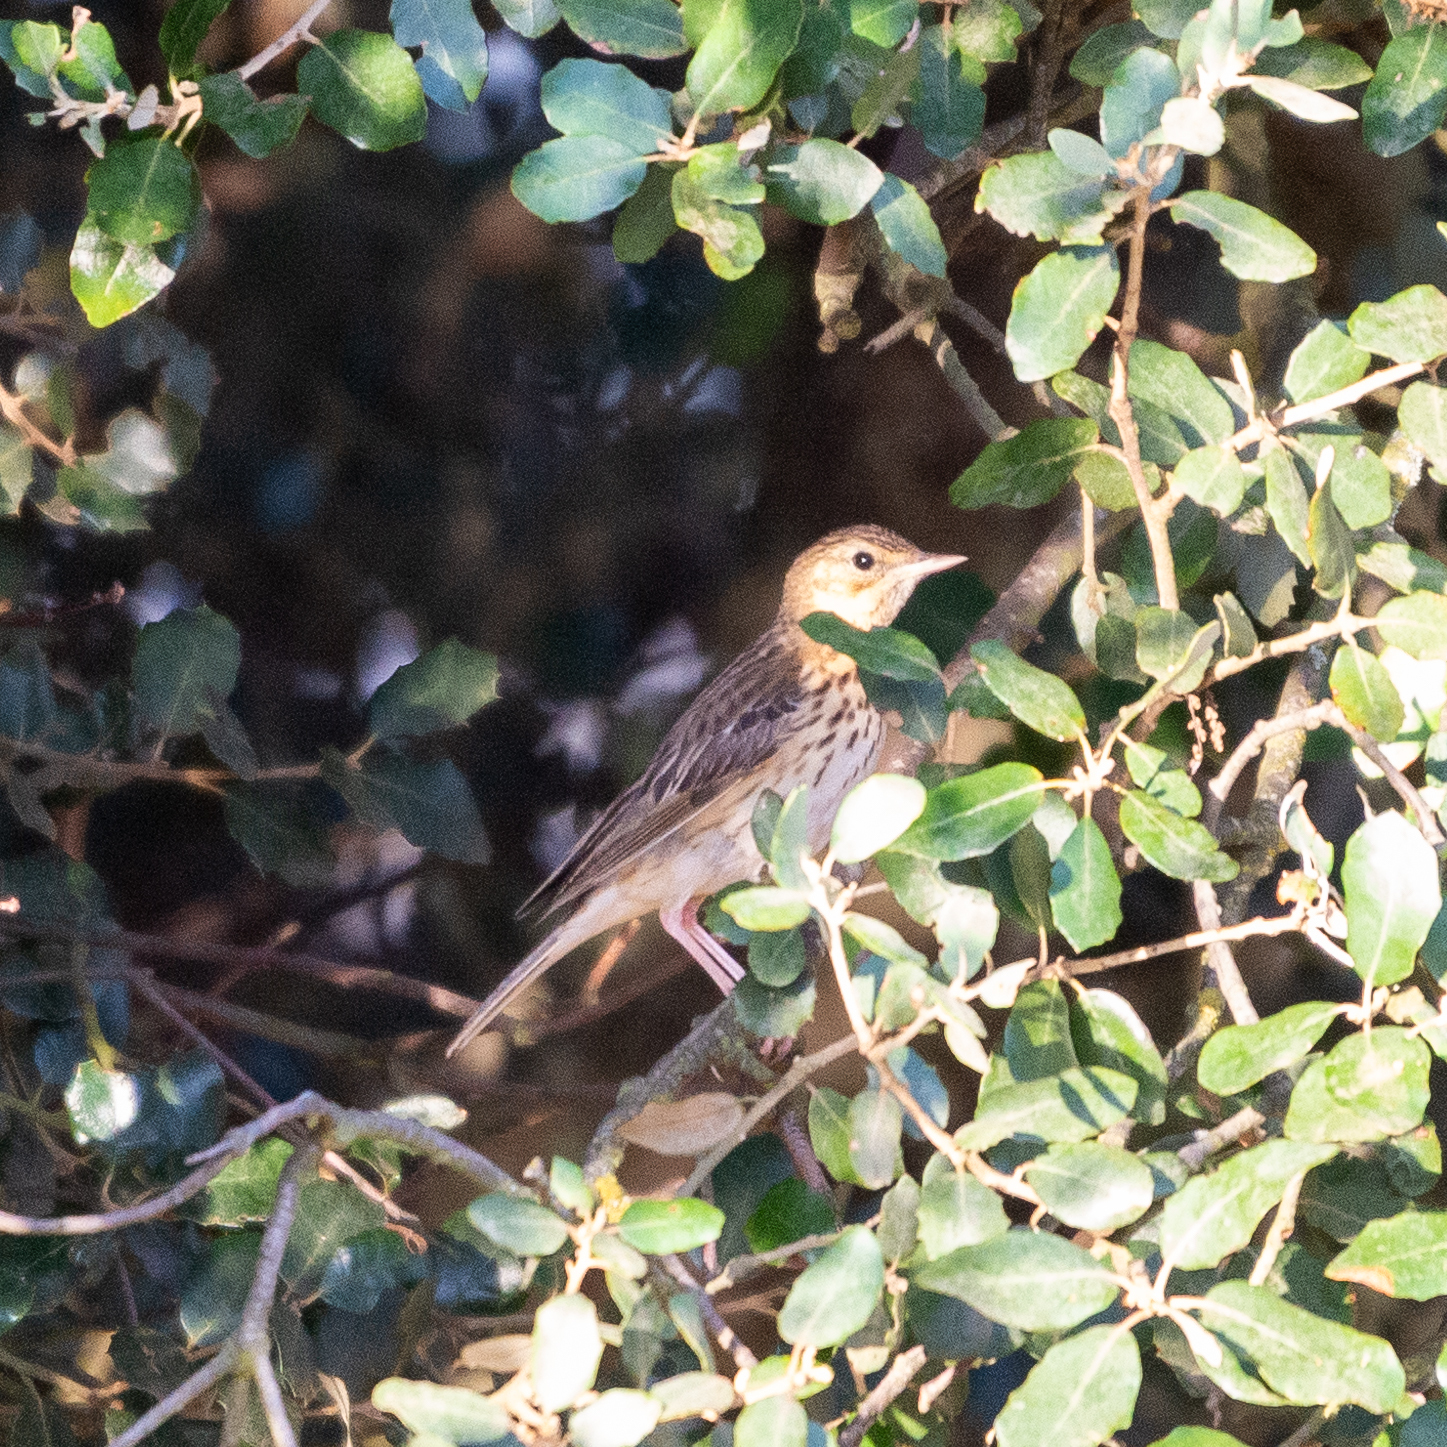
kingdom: Animalia
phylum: Chordata
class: Aves
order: Passeriformes
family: Motacillidae
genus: Anthus
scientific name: Anthus trivialis
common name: Tree pipit
